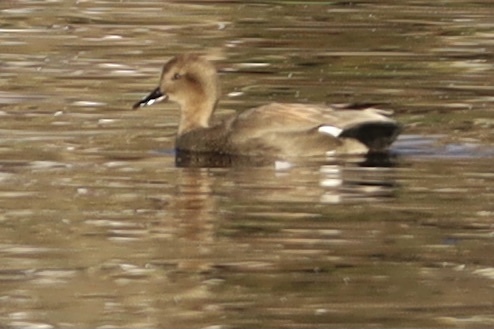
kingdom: Animalia
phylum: Chordata
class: Aves
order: Anseriformes
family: Anatidae
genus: Mareca
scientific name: Mareca strepera
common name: Gadwall
